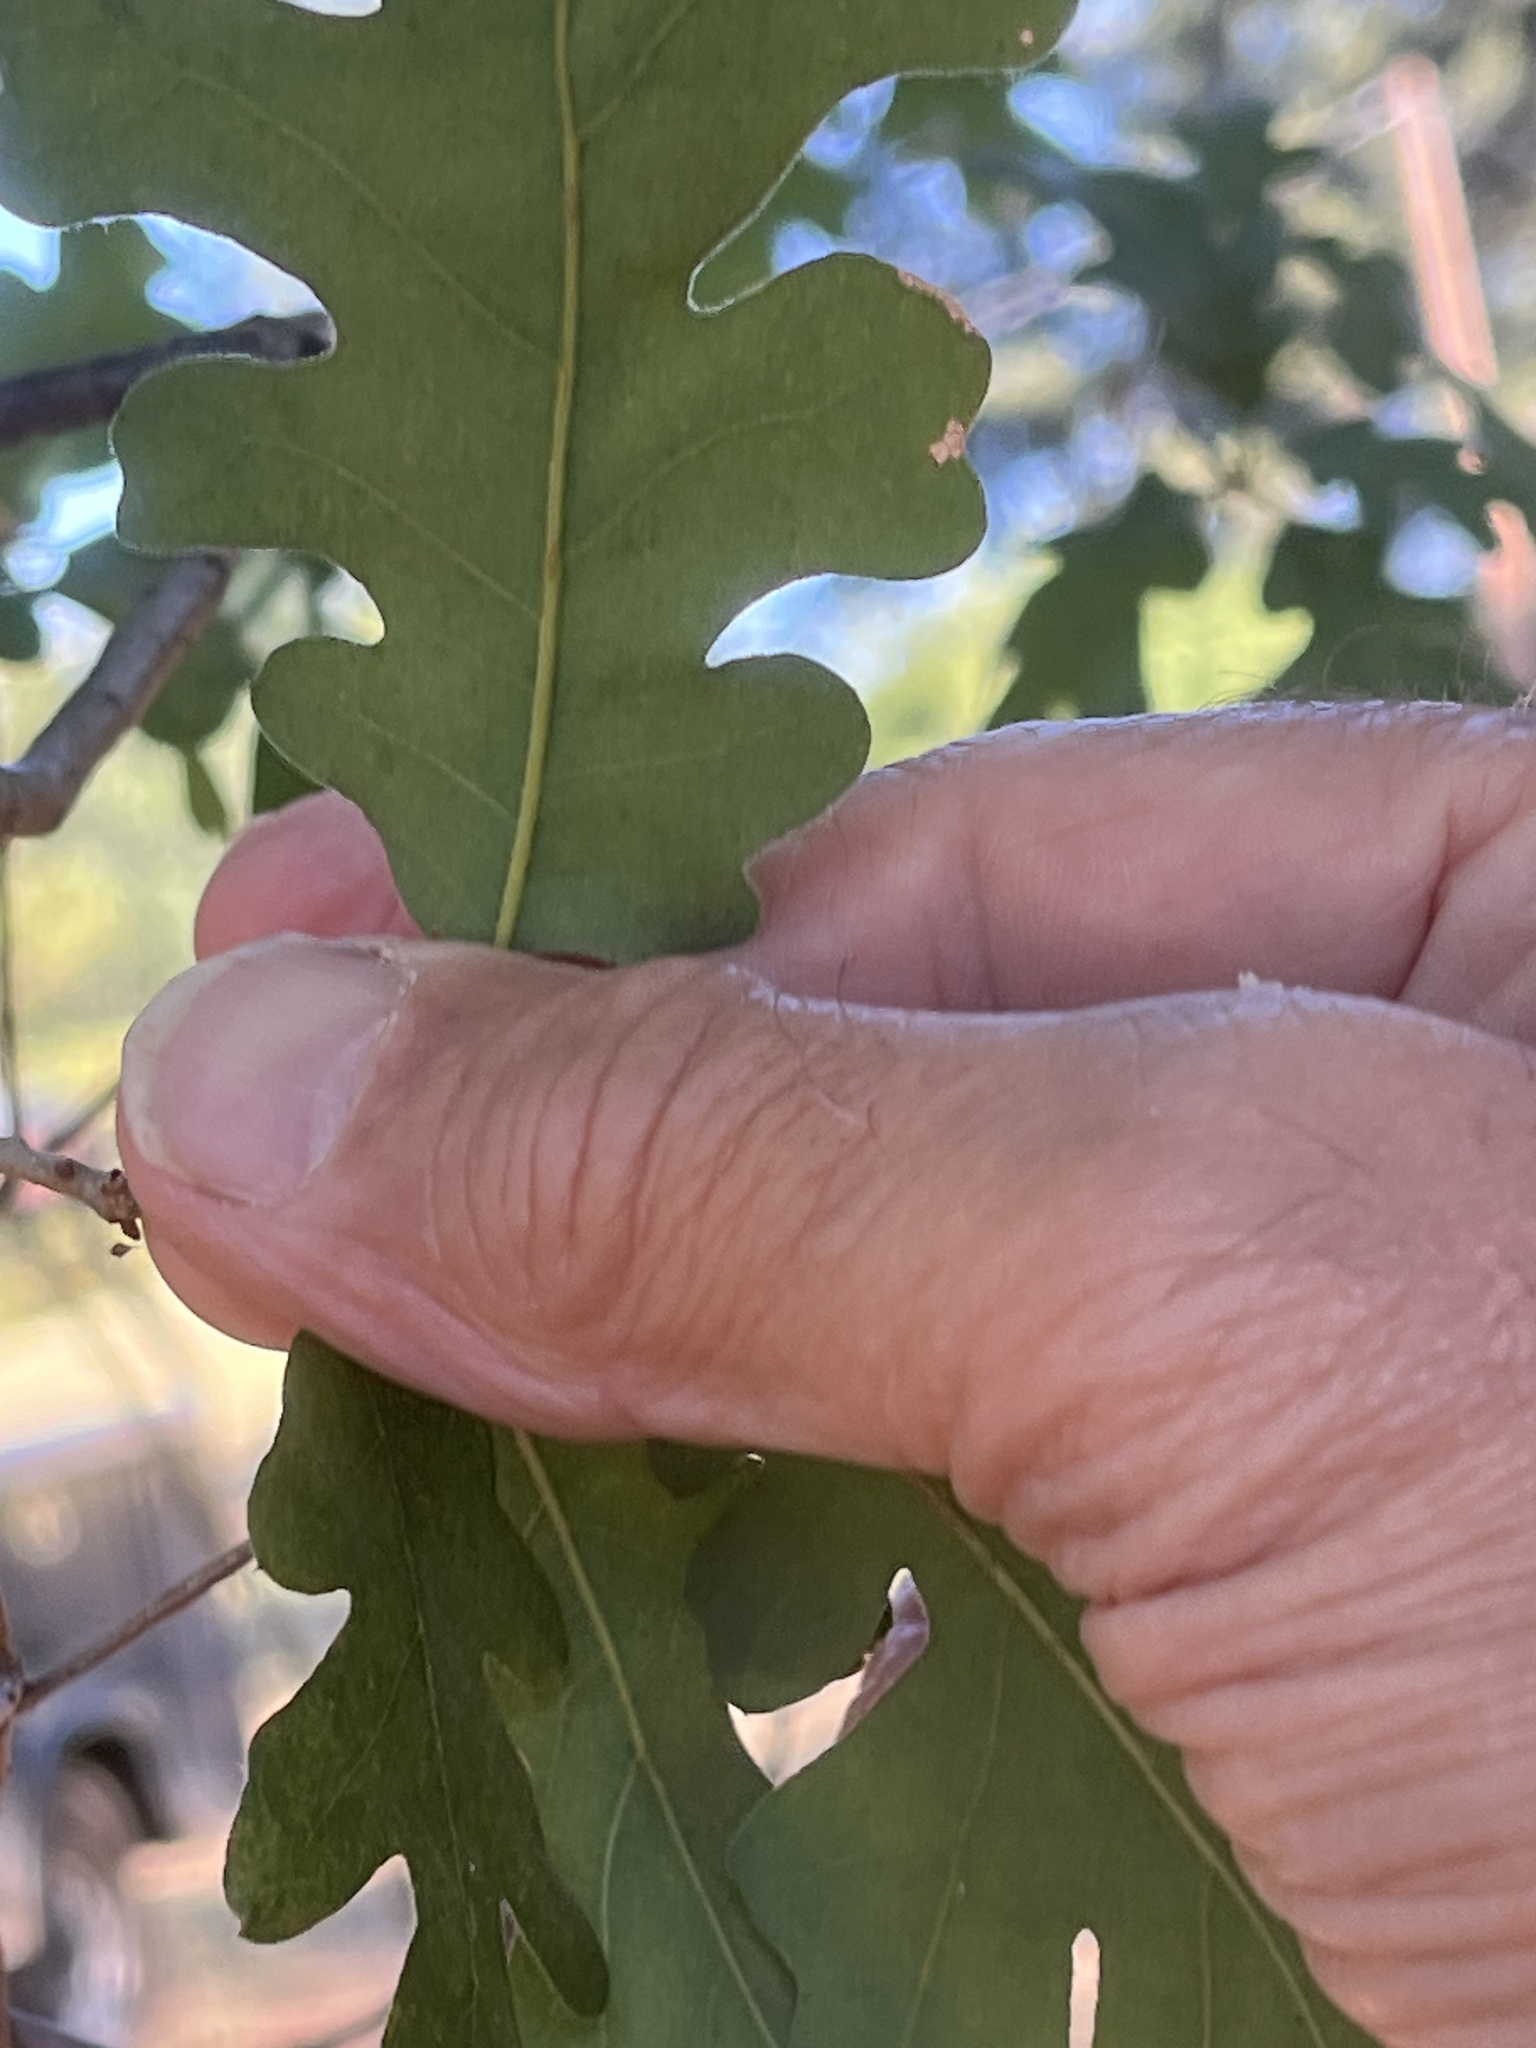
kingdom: Plantae
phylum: Tracheophyta
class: Magnoliopsida
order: Fagales
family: Fagaceae
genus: Quercus
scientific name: Quercus lobata
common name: Valley oak
